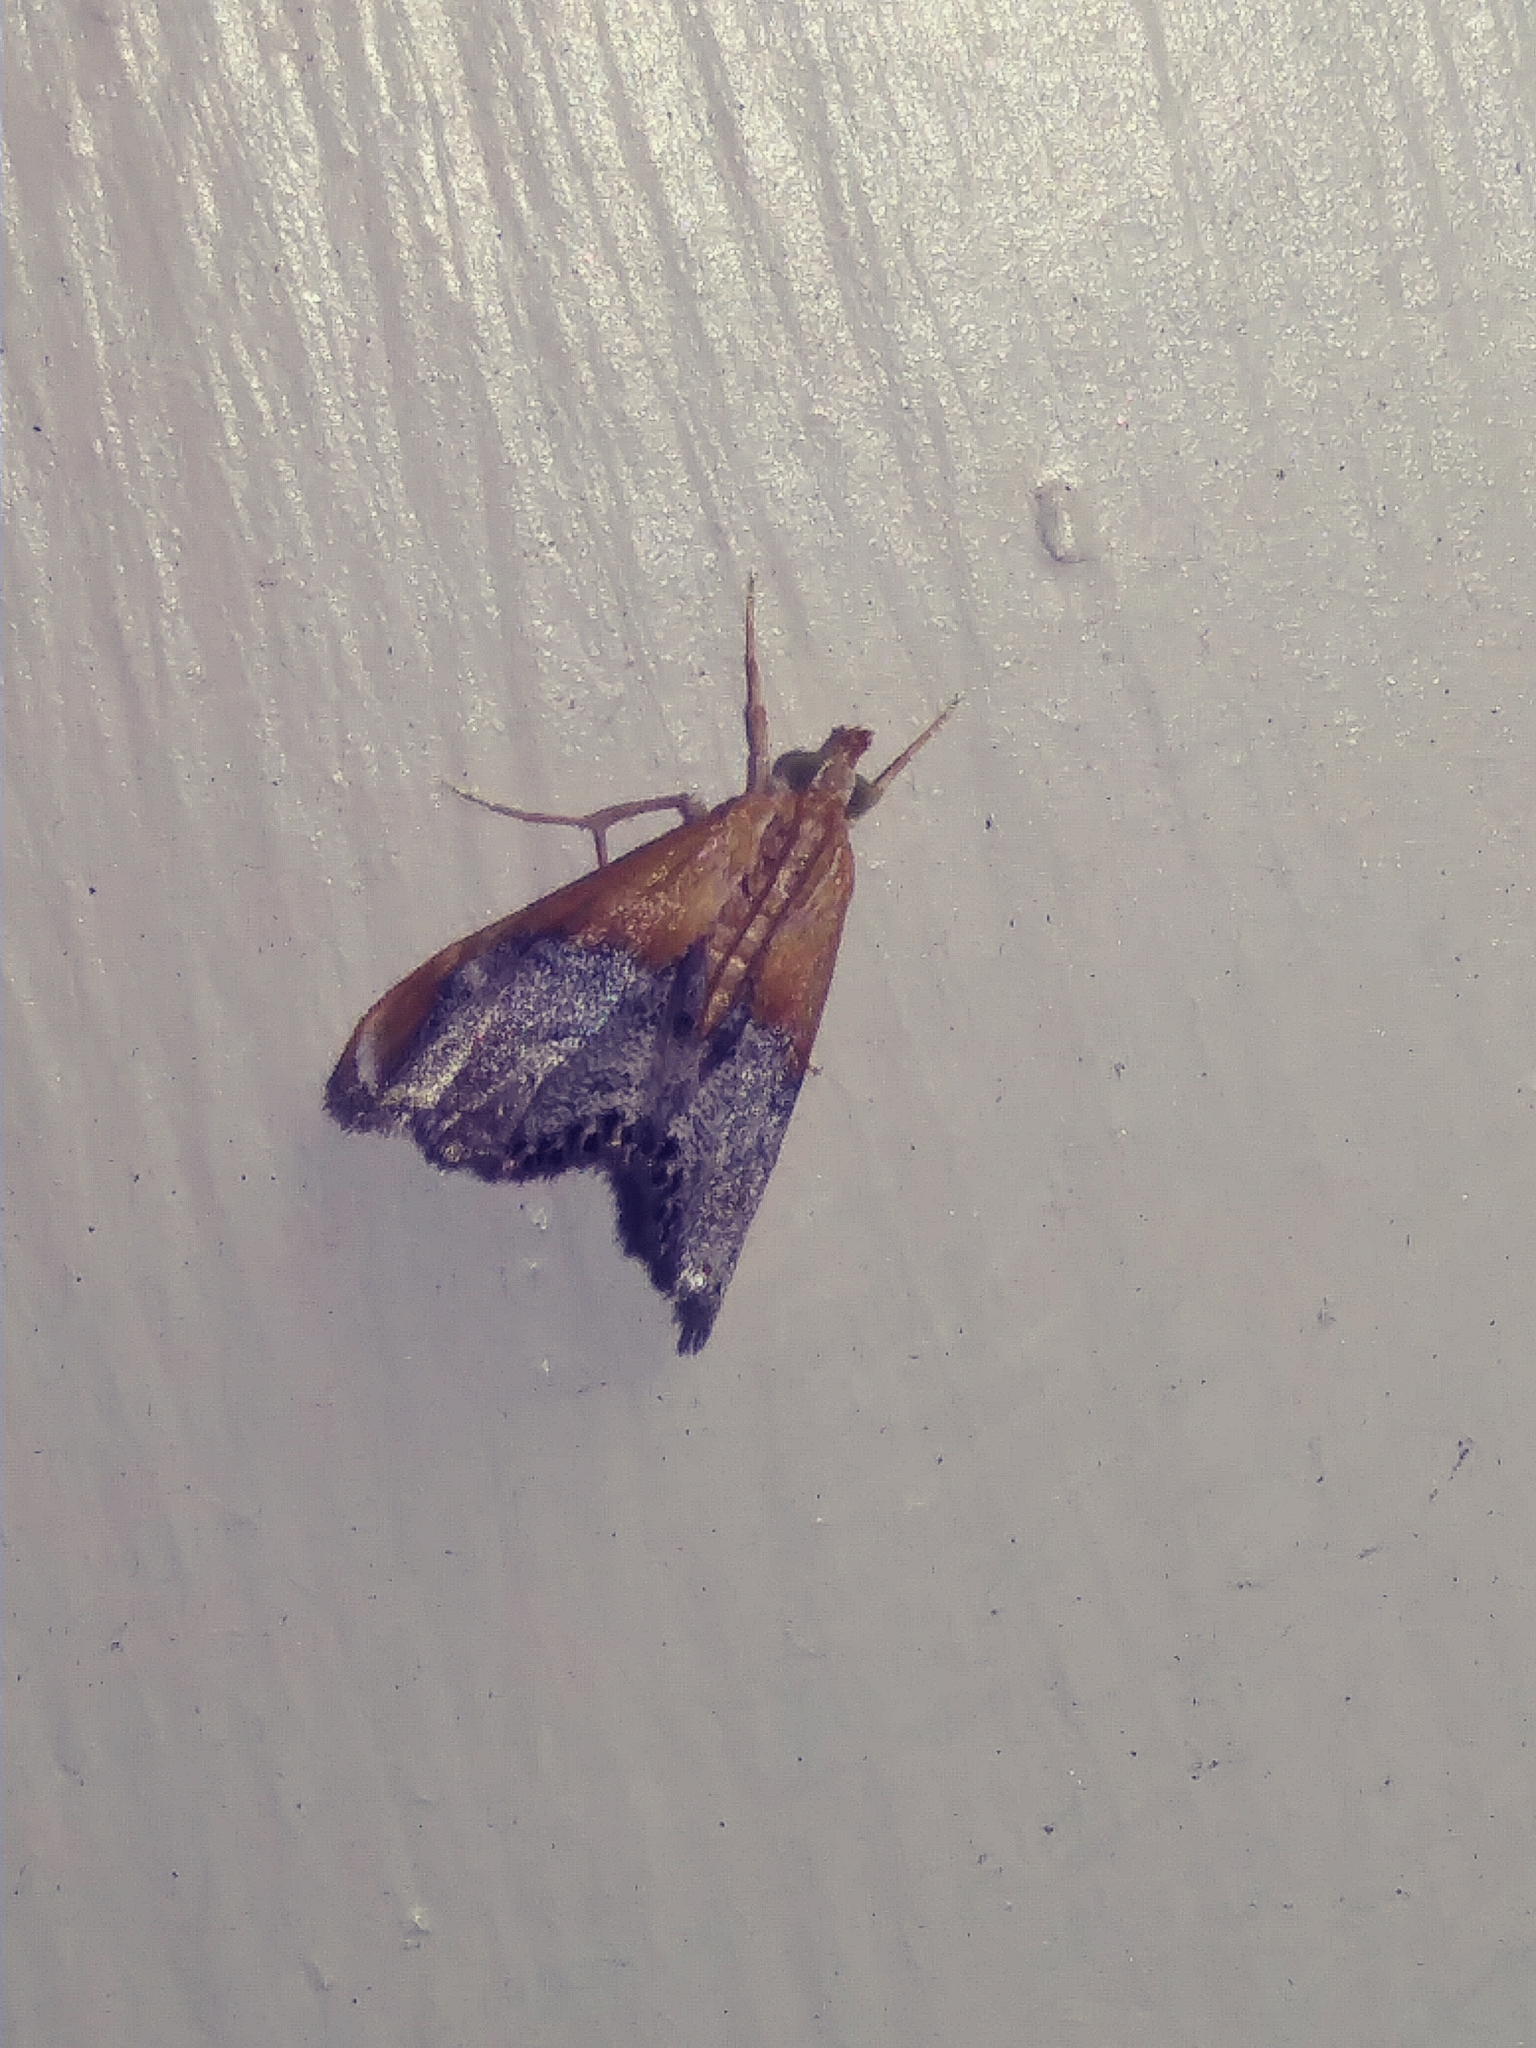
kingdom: Animalia
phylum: Arthropoda
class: Insecta
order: Lepidoptera
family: Crambidae
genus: Chalcoela
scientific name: Chalcoela iphitalis
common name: Sooty-winged chalcoela moth
